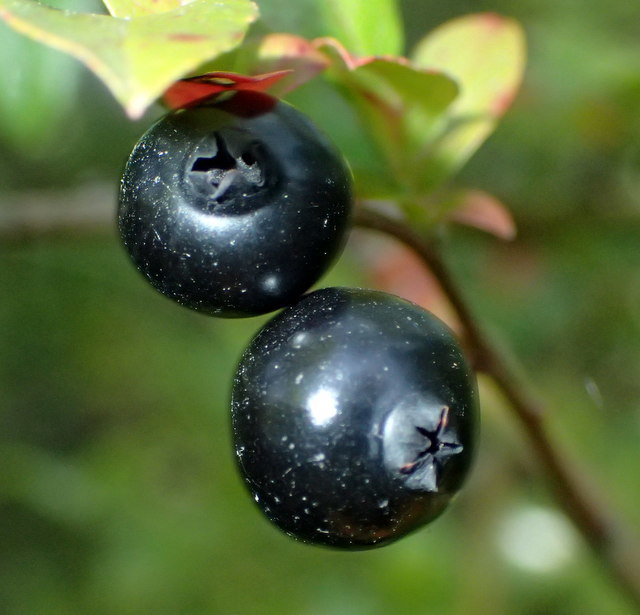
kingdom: Plantae
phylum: Tracheophyta
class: Magnoliopsida
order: Ericales
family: Ericaceae
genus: Vaccinium
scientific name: Vaccinium corymbosum
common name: Blueberry
